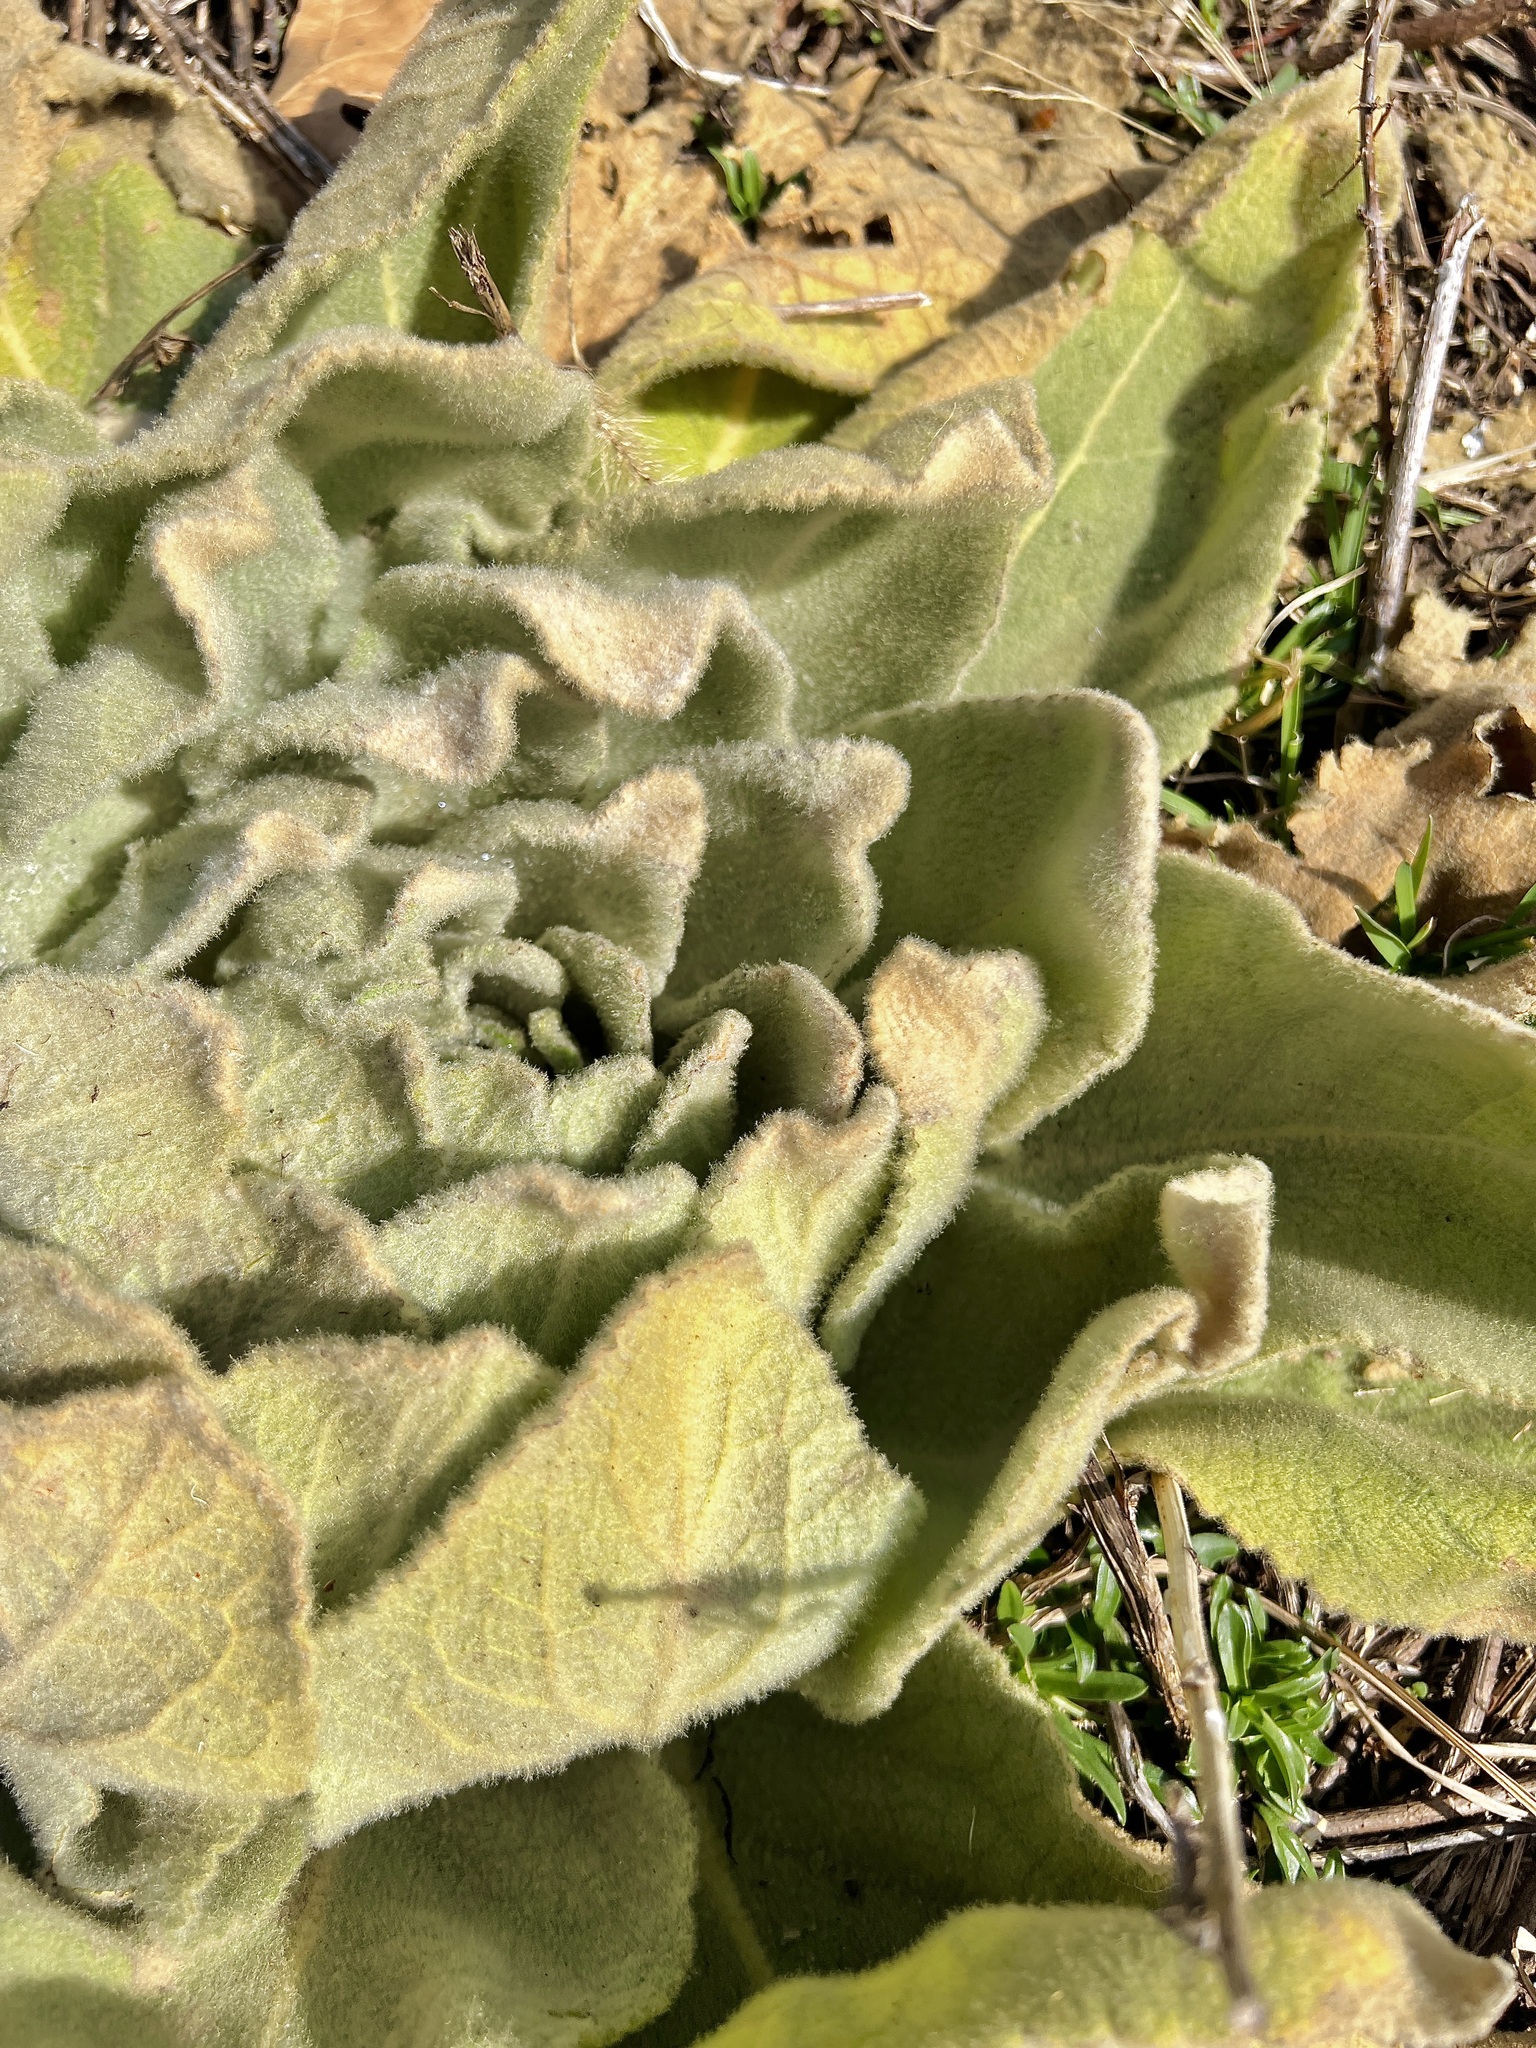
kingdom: Plantae
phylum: Tracheophyta
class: Magnoliopsida
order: Lamiales
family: Scrophulariaceae
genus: Verbascum
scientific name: Verbascum thapsus
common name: Common mullein
